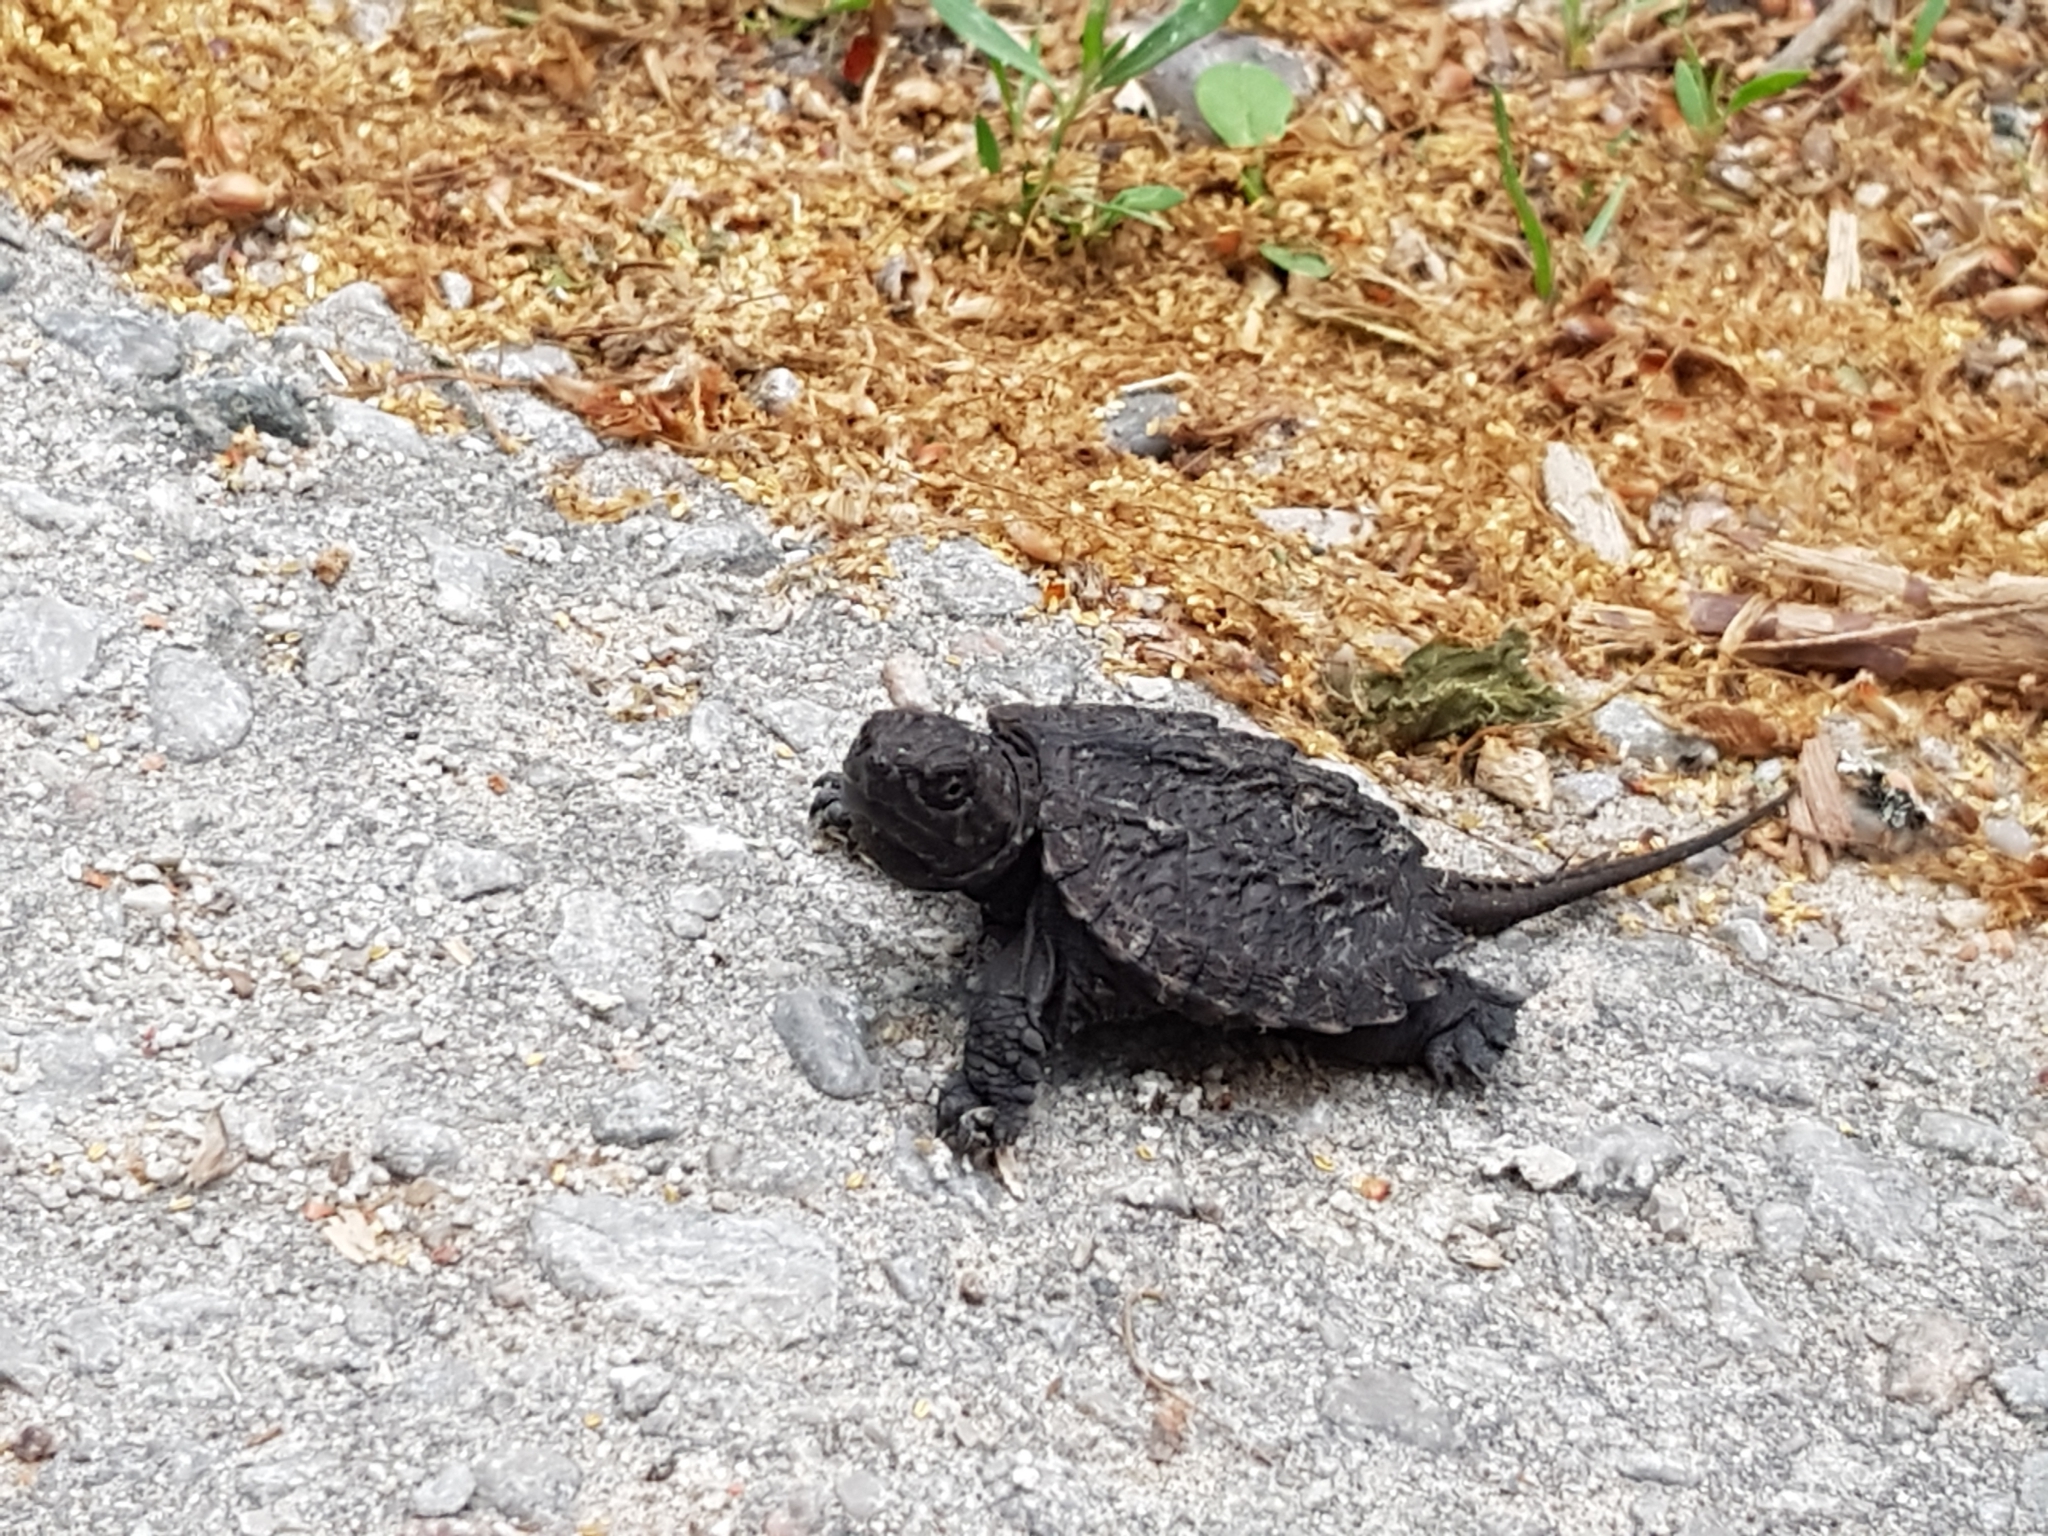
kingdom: Animalia
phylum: Chordata
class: Testudines
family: Chelydridae
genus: Chelydra
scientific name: Chelydra serpentina
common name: Common snapping turtle
